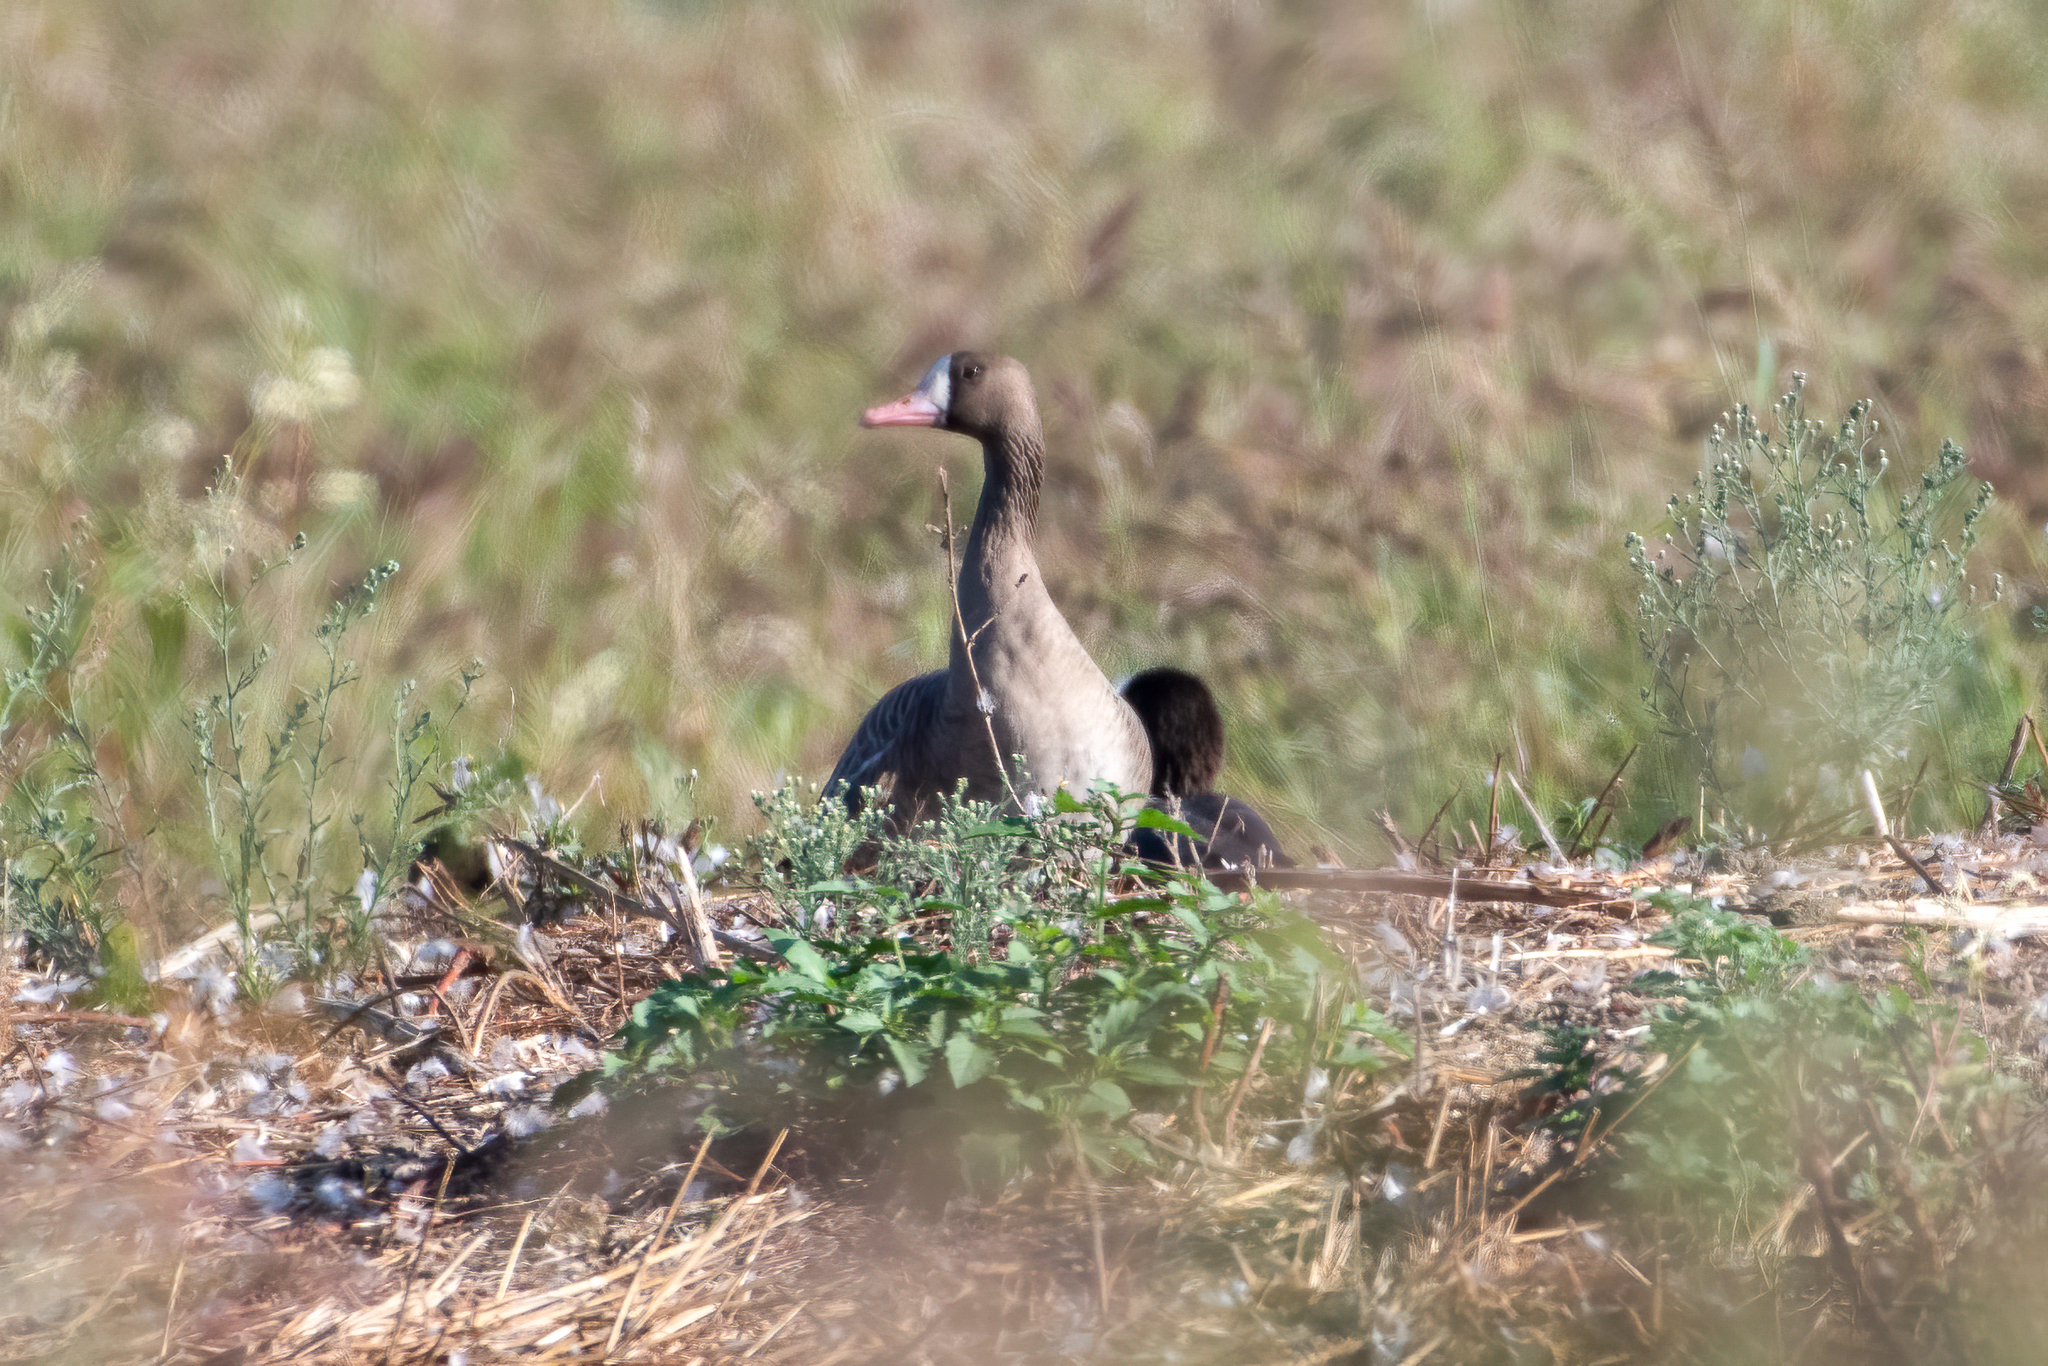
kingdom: Animalia
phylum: Chordata
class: Aves
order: Anseriformes
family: Anatidae
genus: Anser
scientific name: Anser albifrons
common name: Greater white-fronted goose
